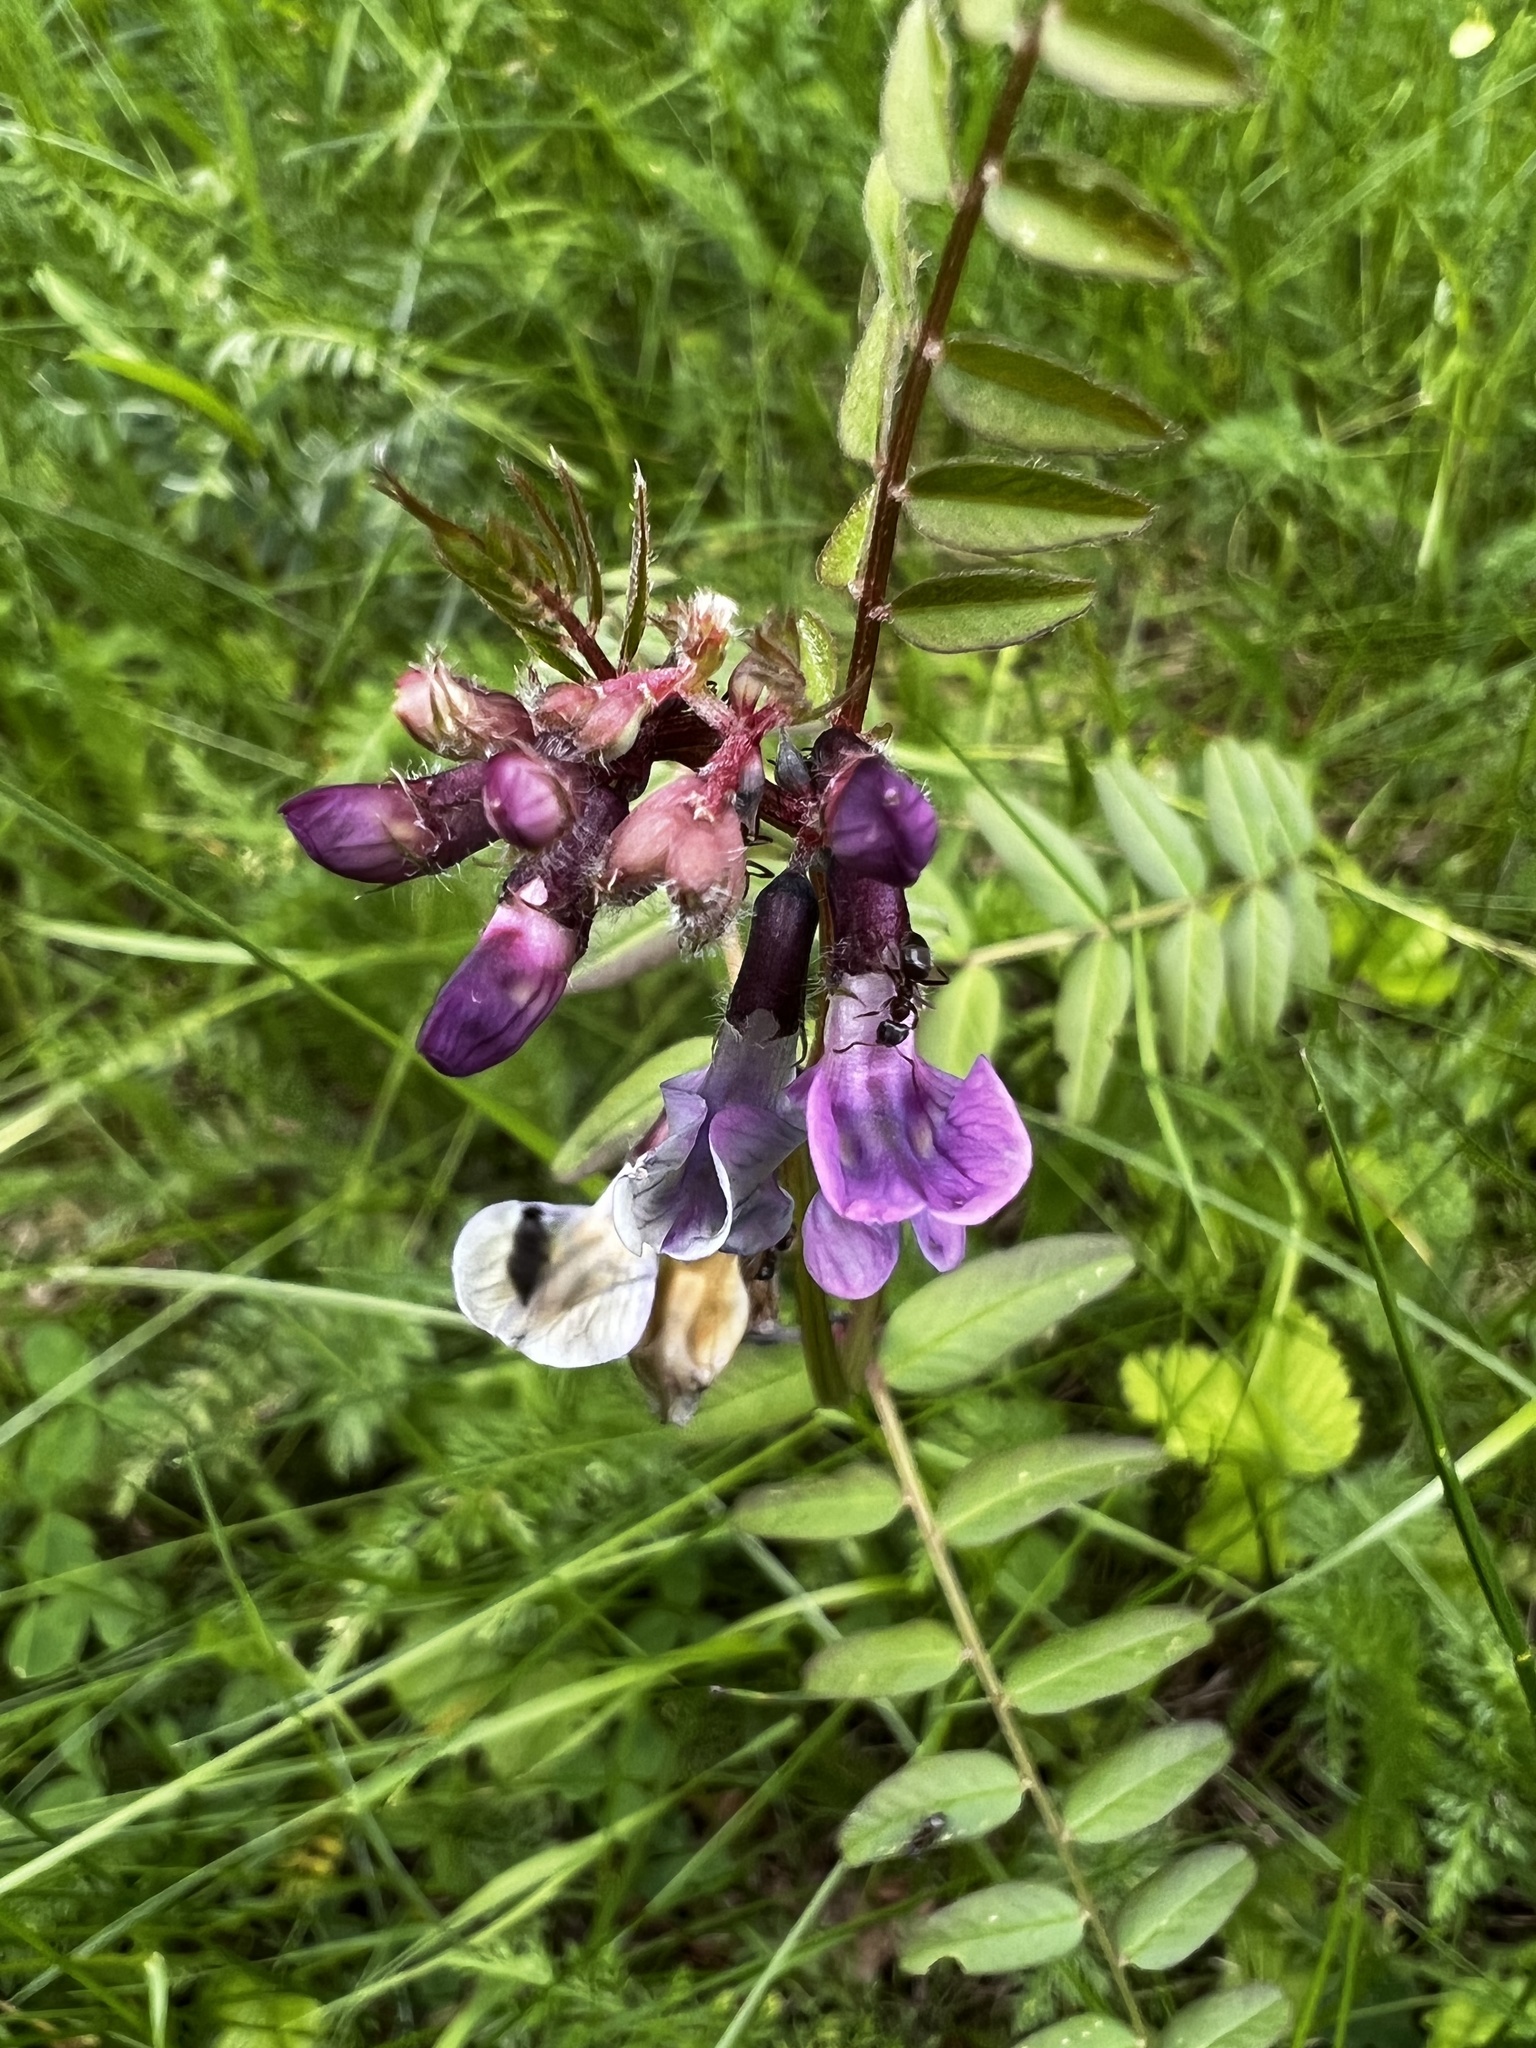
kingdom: Plantae
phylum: Tracheophyta
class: Magnoliopsida
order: Fabales
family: Fabaceae
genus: Vicia
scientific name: Vicia sepium
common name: Bush vetch
